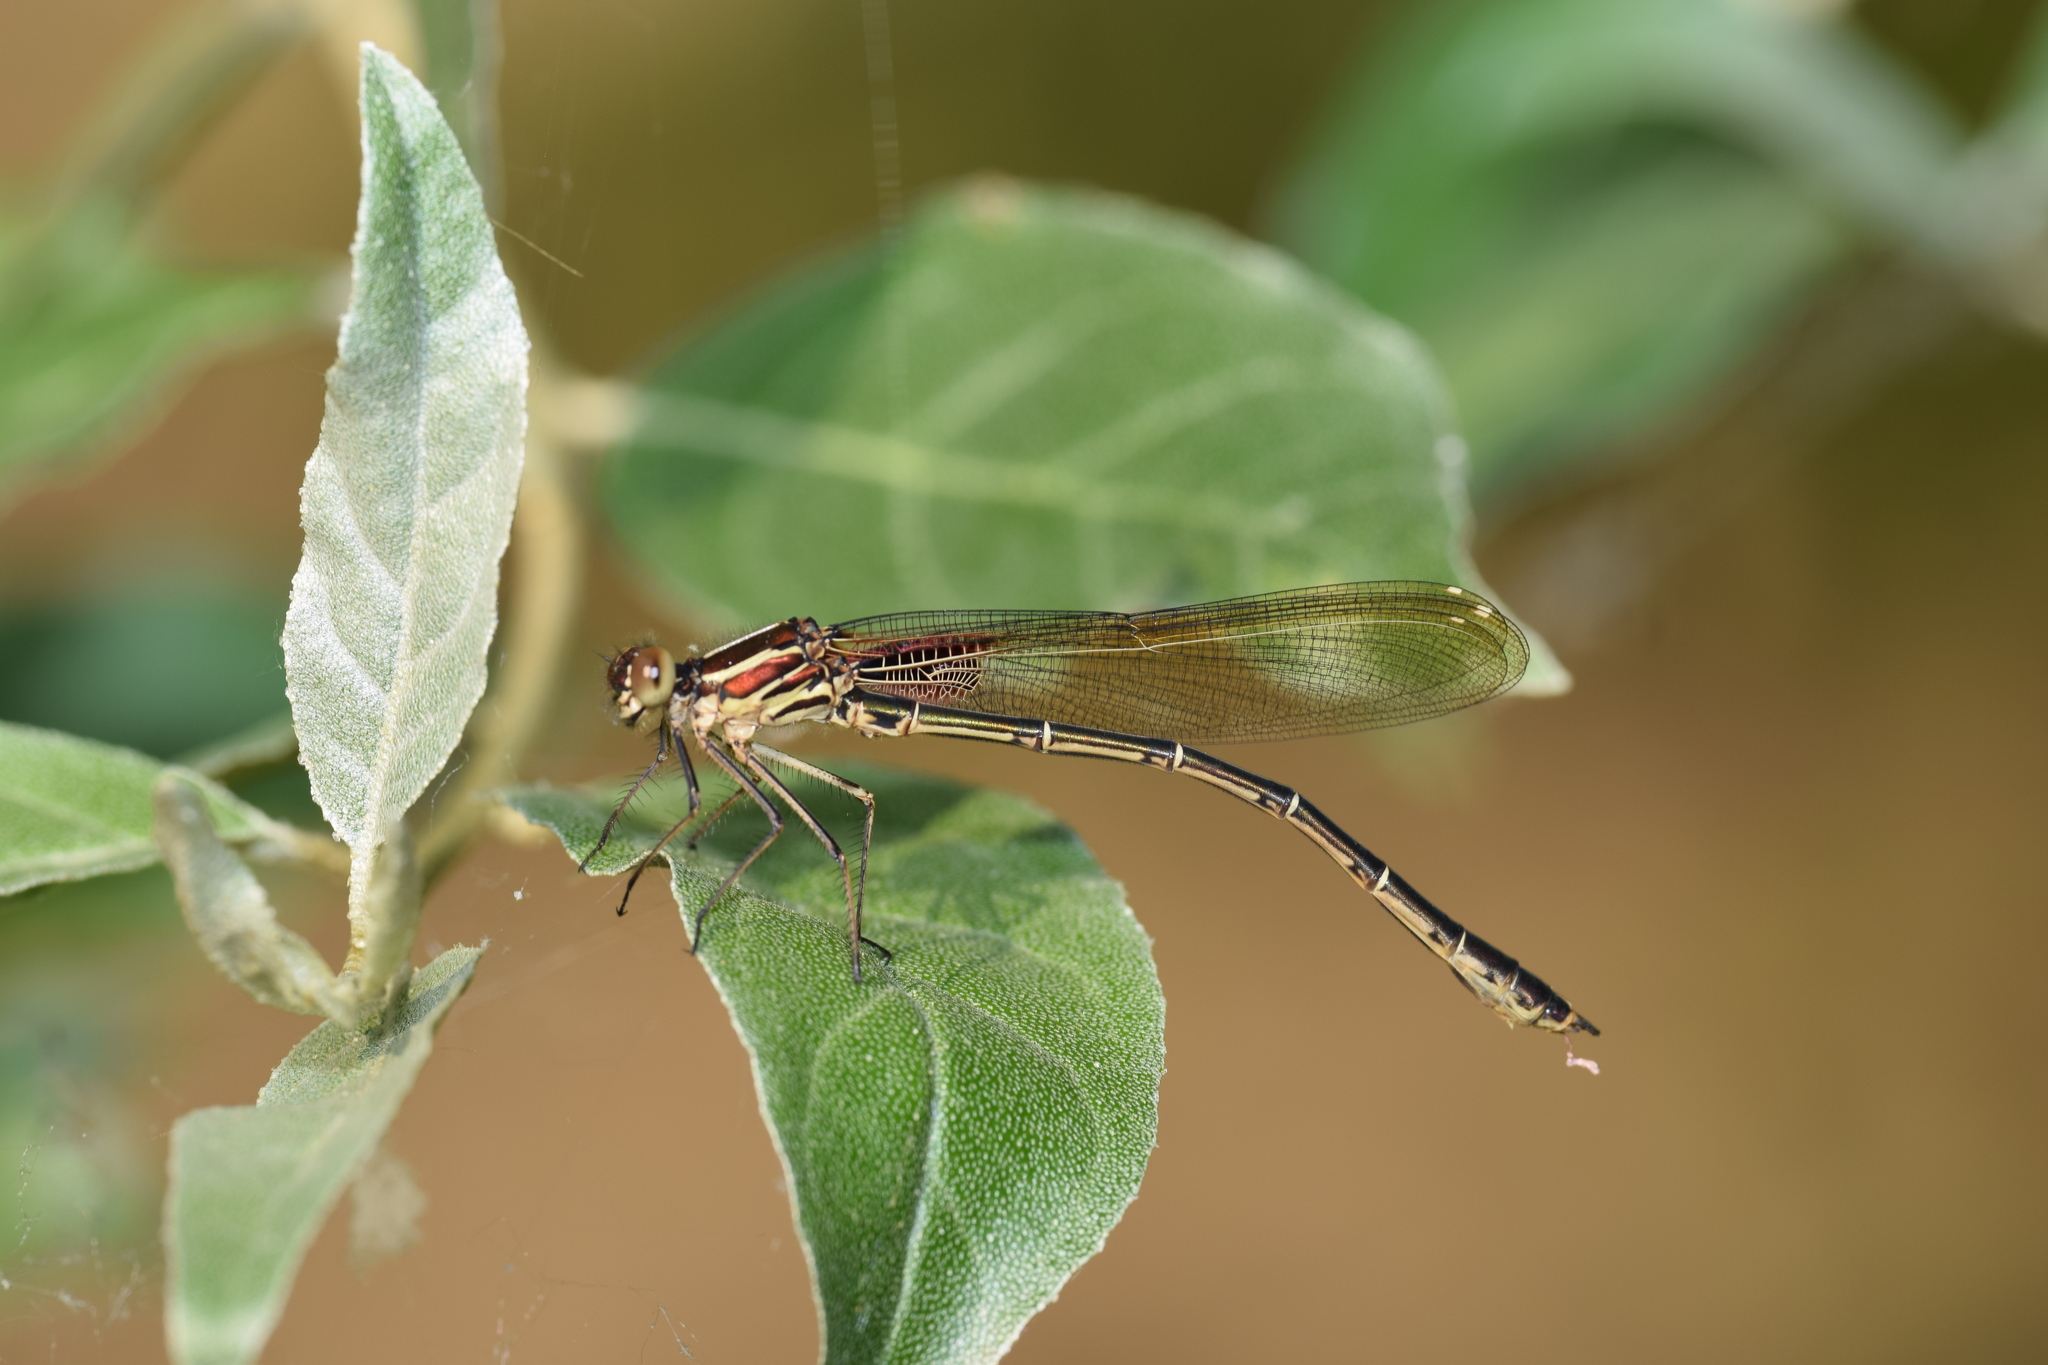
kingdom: Animalia
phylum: Arthropoda
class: Insecta
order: Odonata
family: Calopterygidae
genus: Hetaerina
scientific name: Hetaerina americana
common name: American rubyspot
